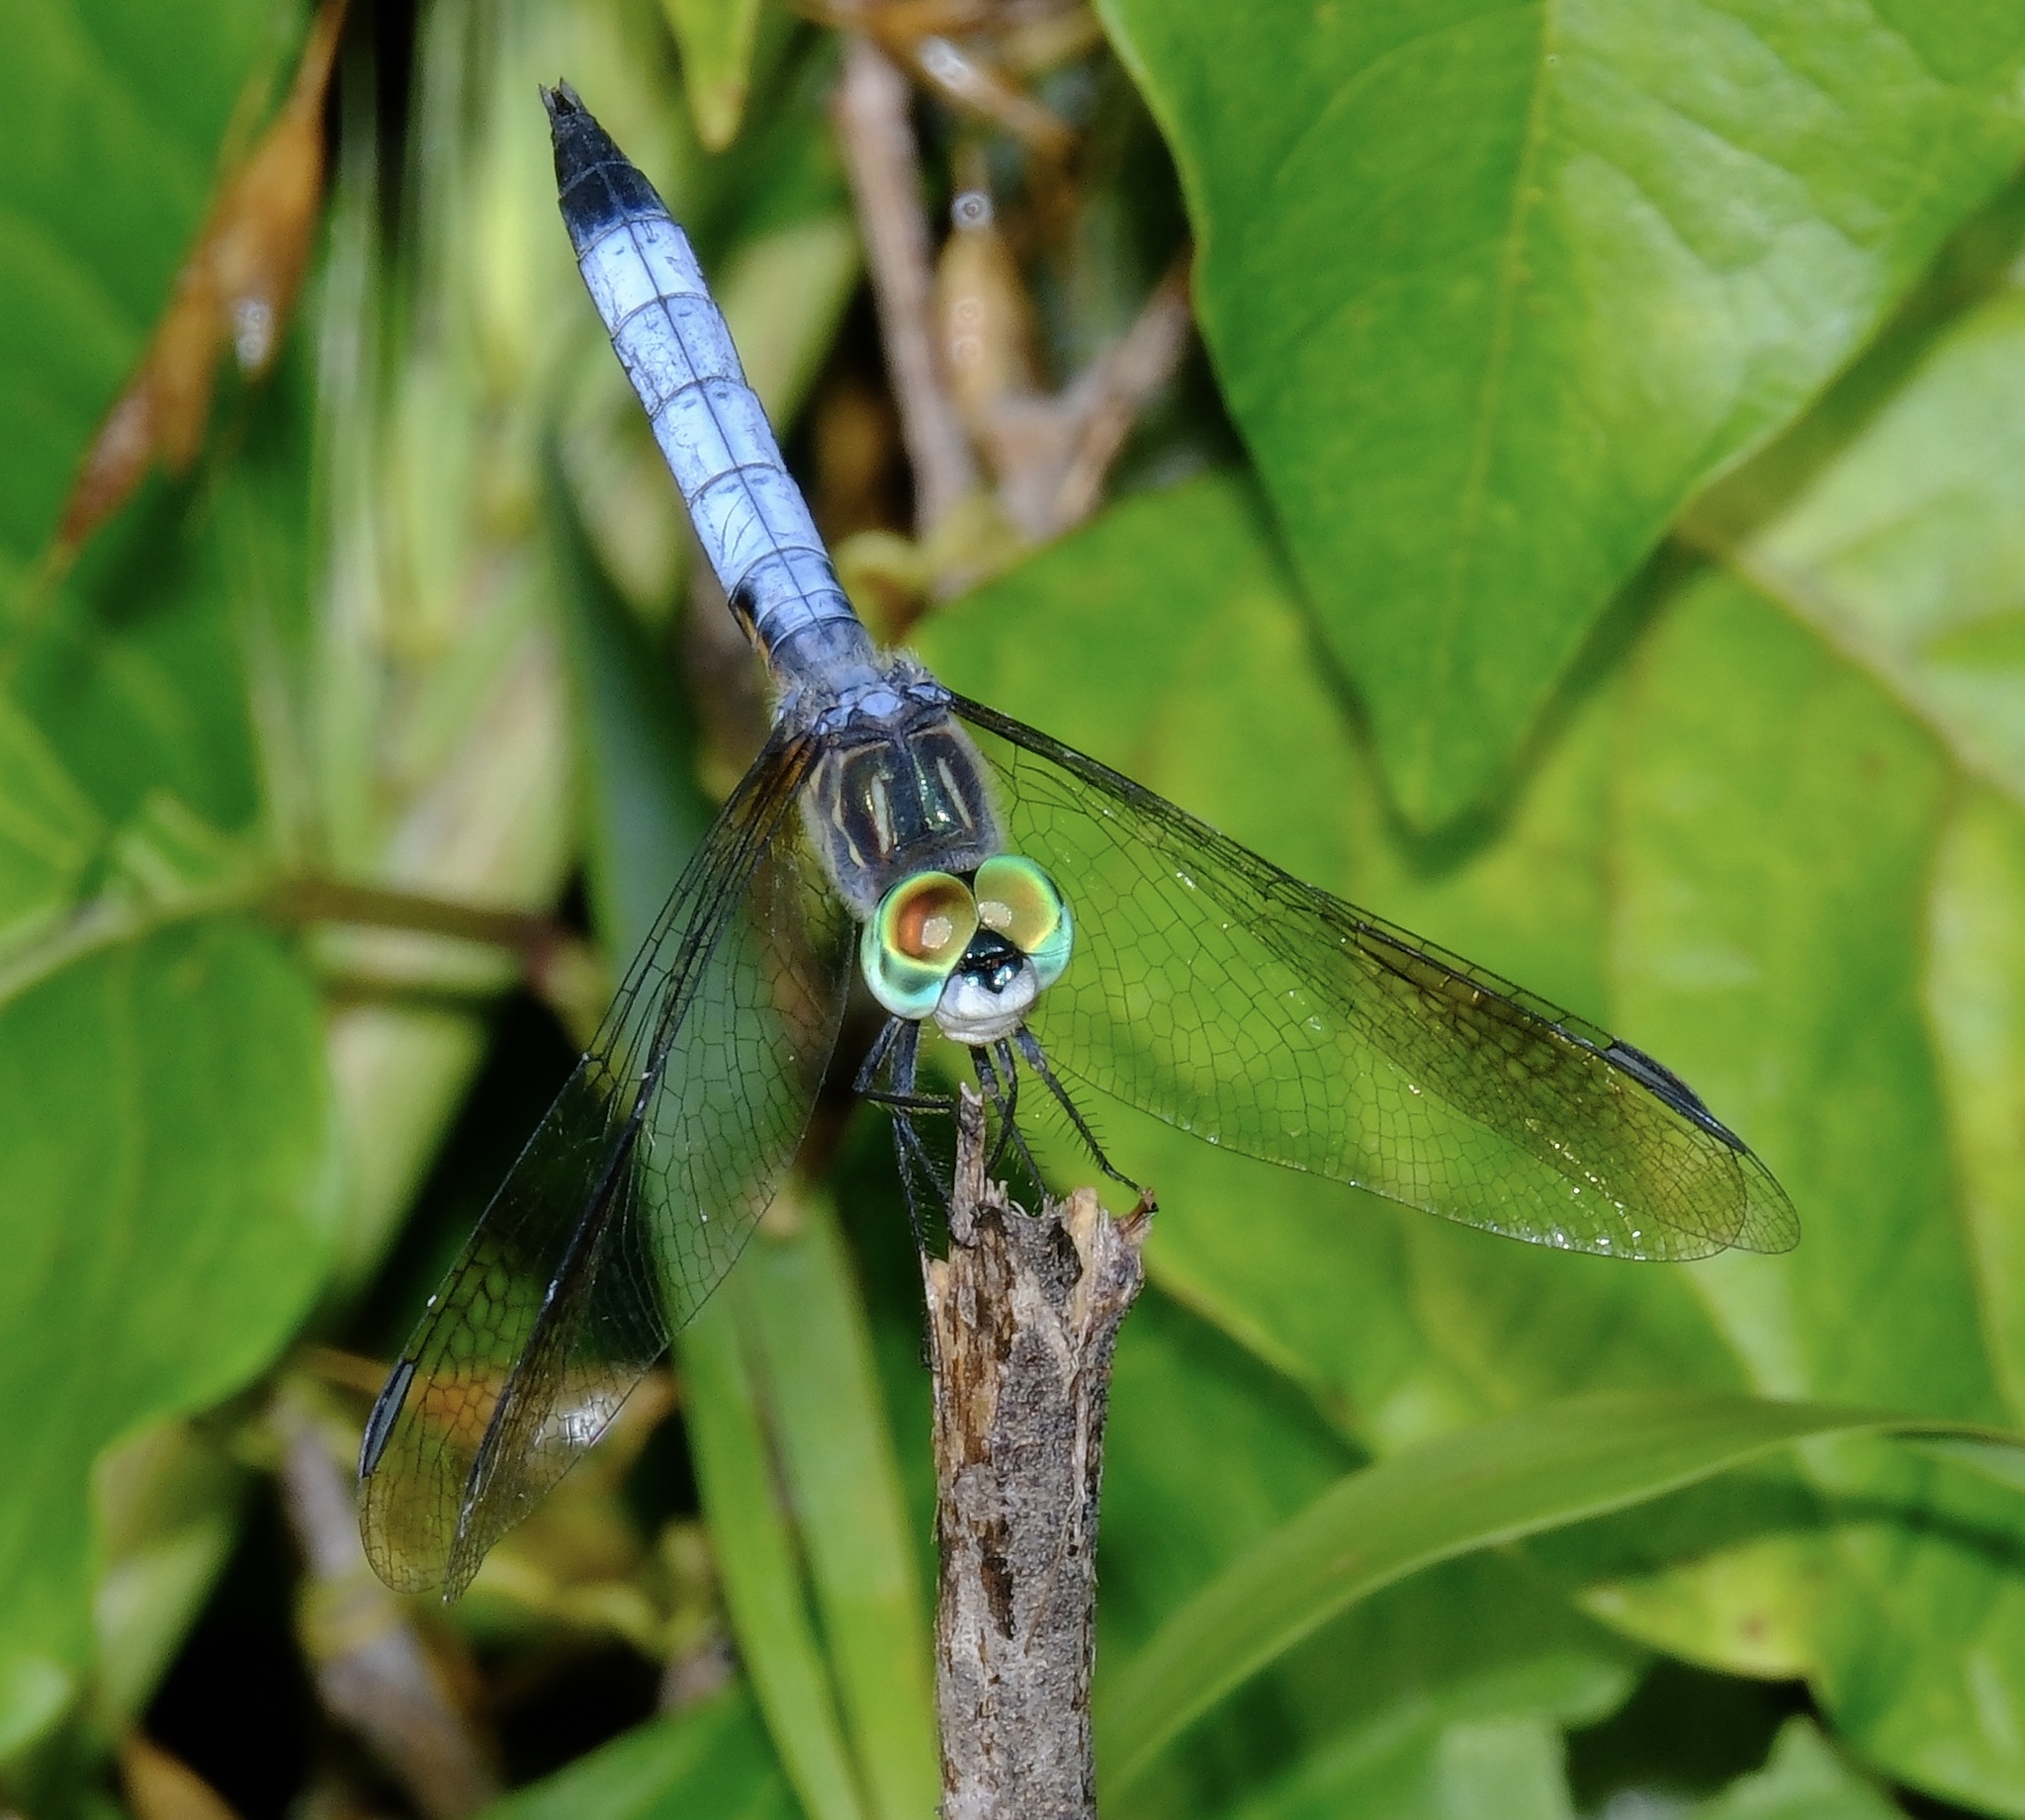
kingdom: Animalia
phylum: Arthropoda
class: Insecta
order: Odonata
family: Libellulidae
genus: Pachydiplax
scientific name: Pachydiplax longipennis
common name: Blue dasher
